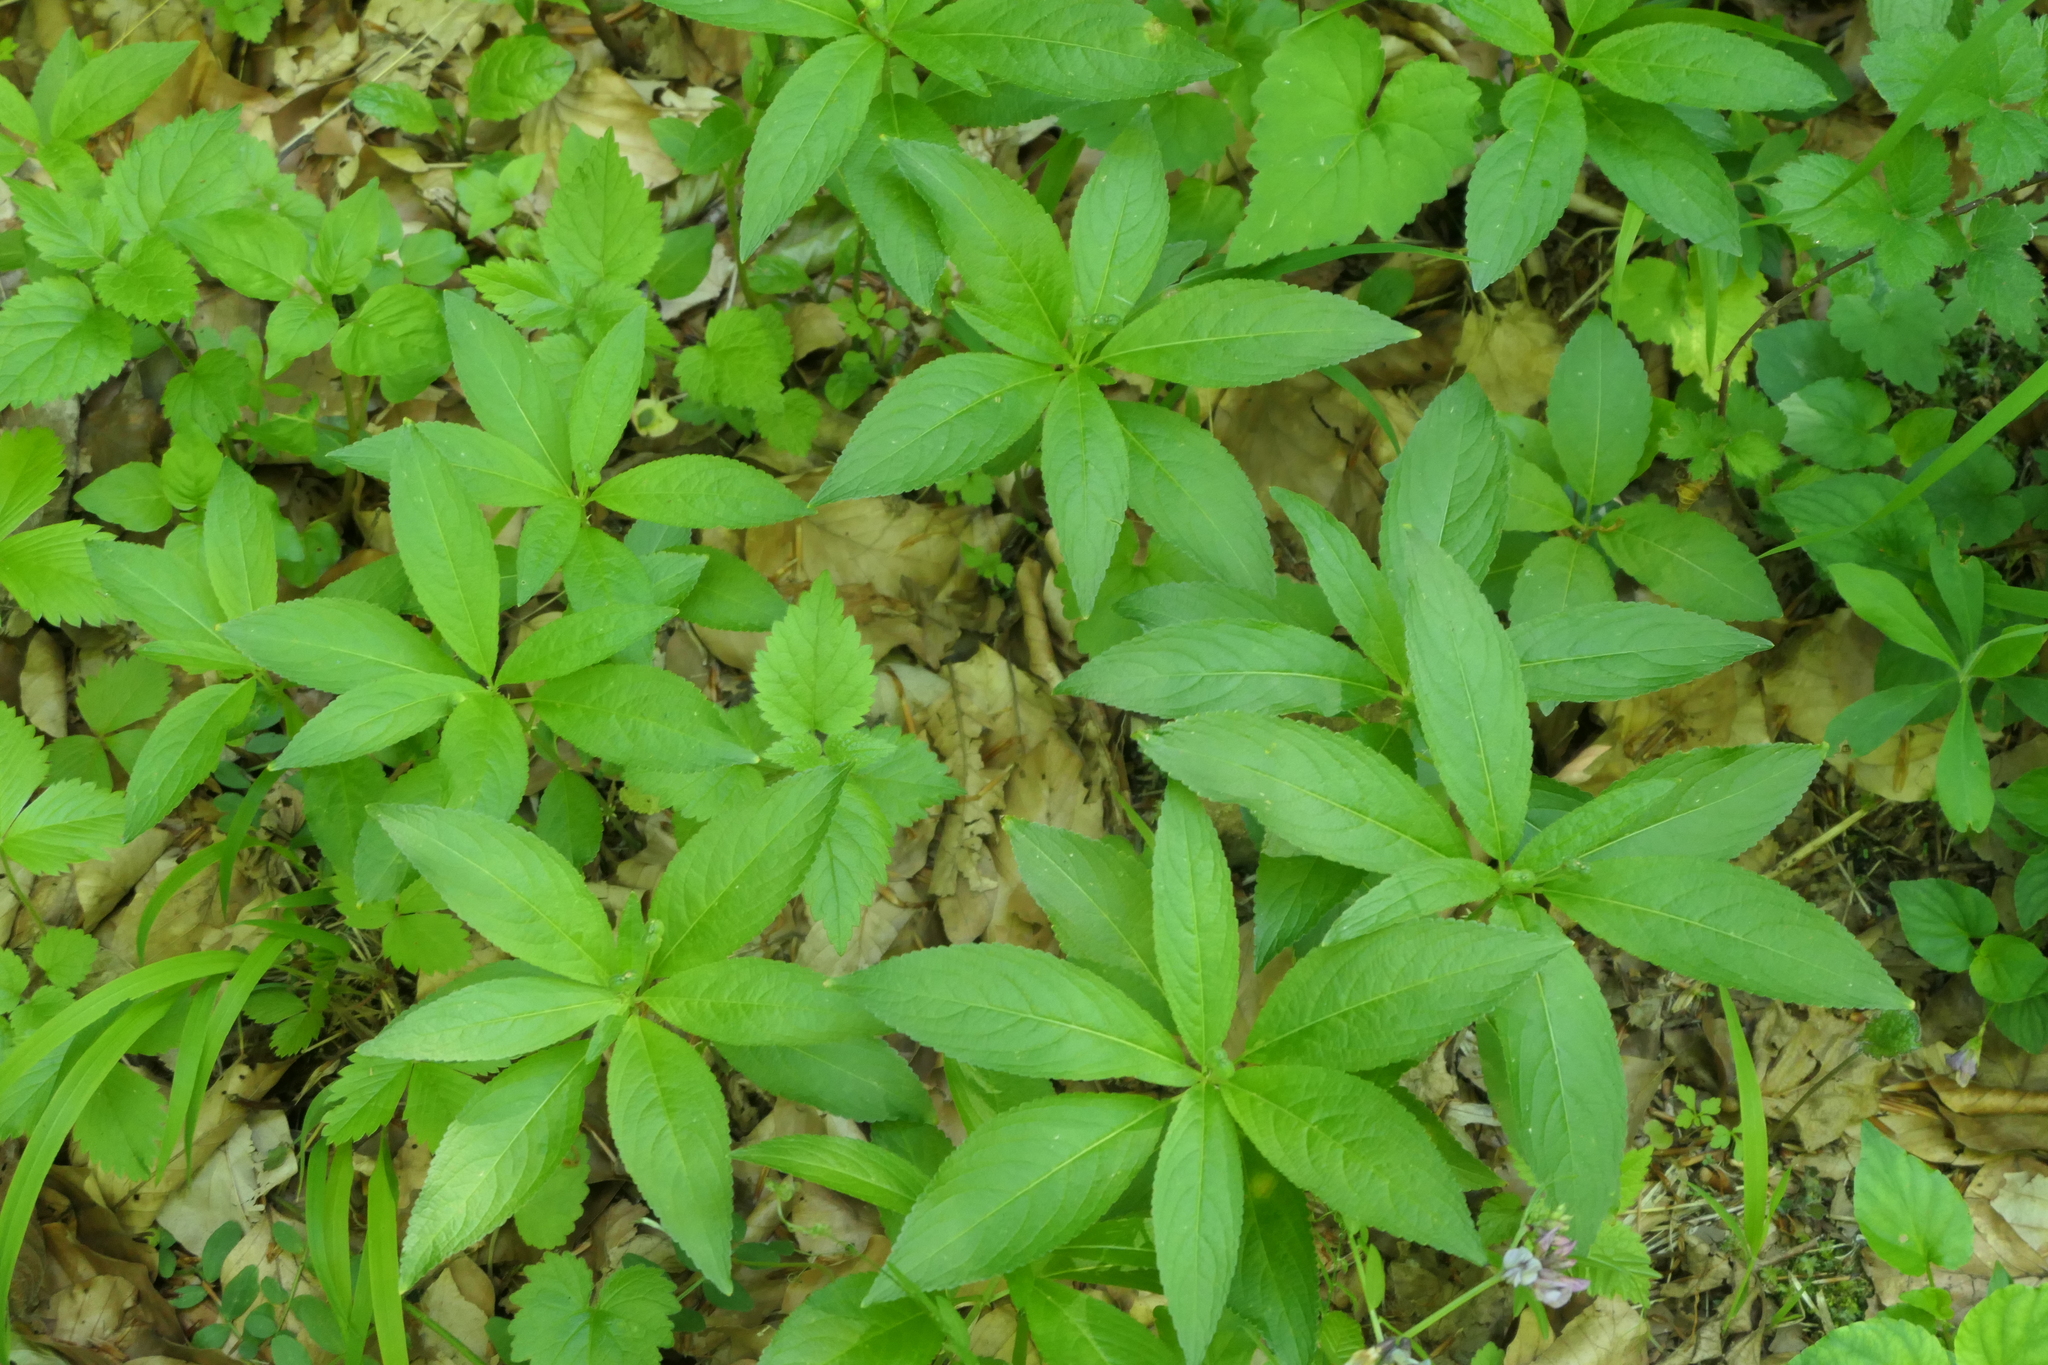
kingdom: Plantae
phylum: Tracheophyta
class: Magnoliopsida
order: Malpighiales
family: Euphorbiaceae
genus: Mercurialis
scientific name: Mercurialis perennis
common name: Dog mercury
